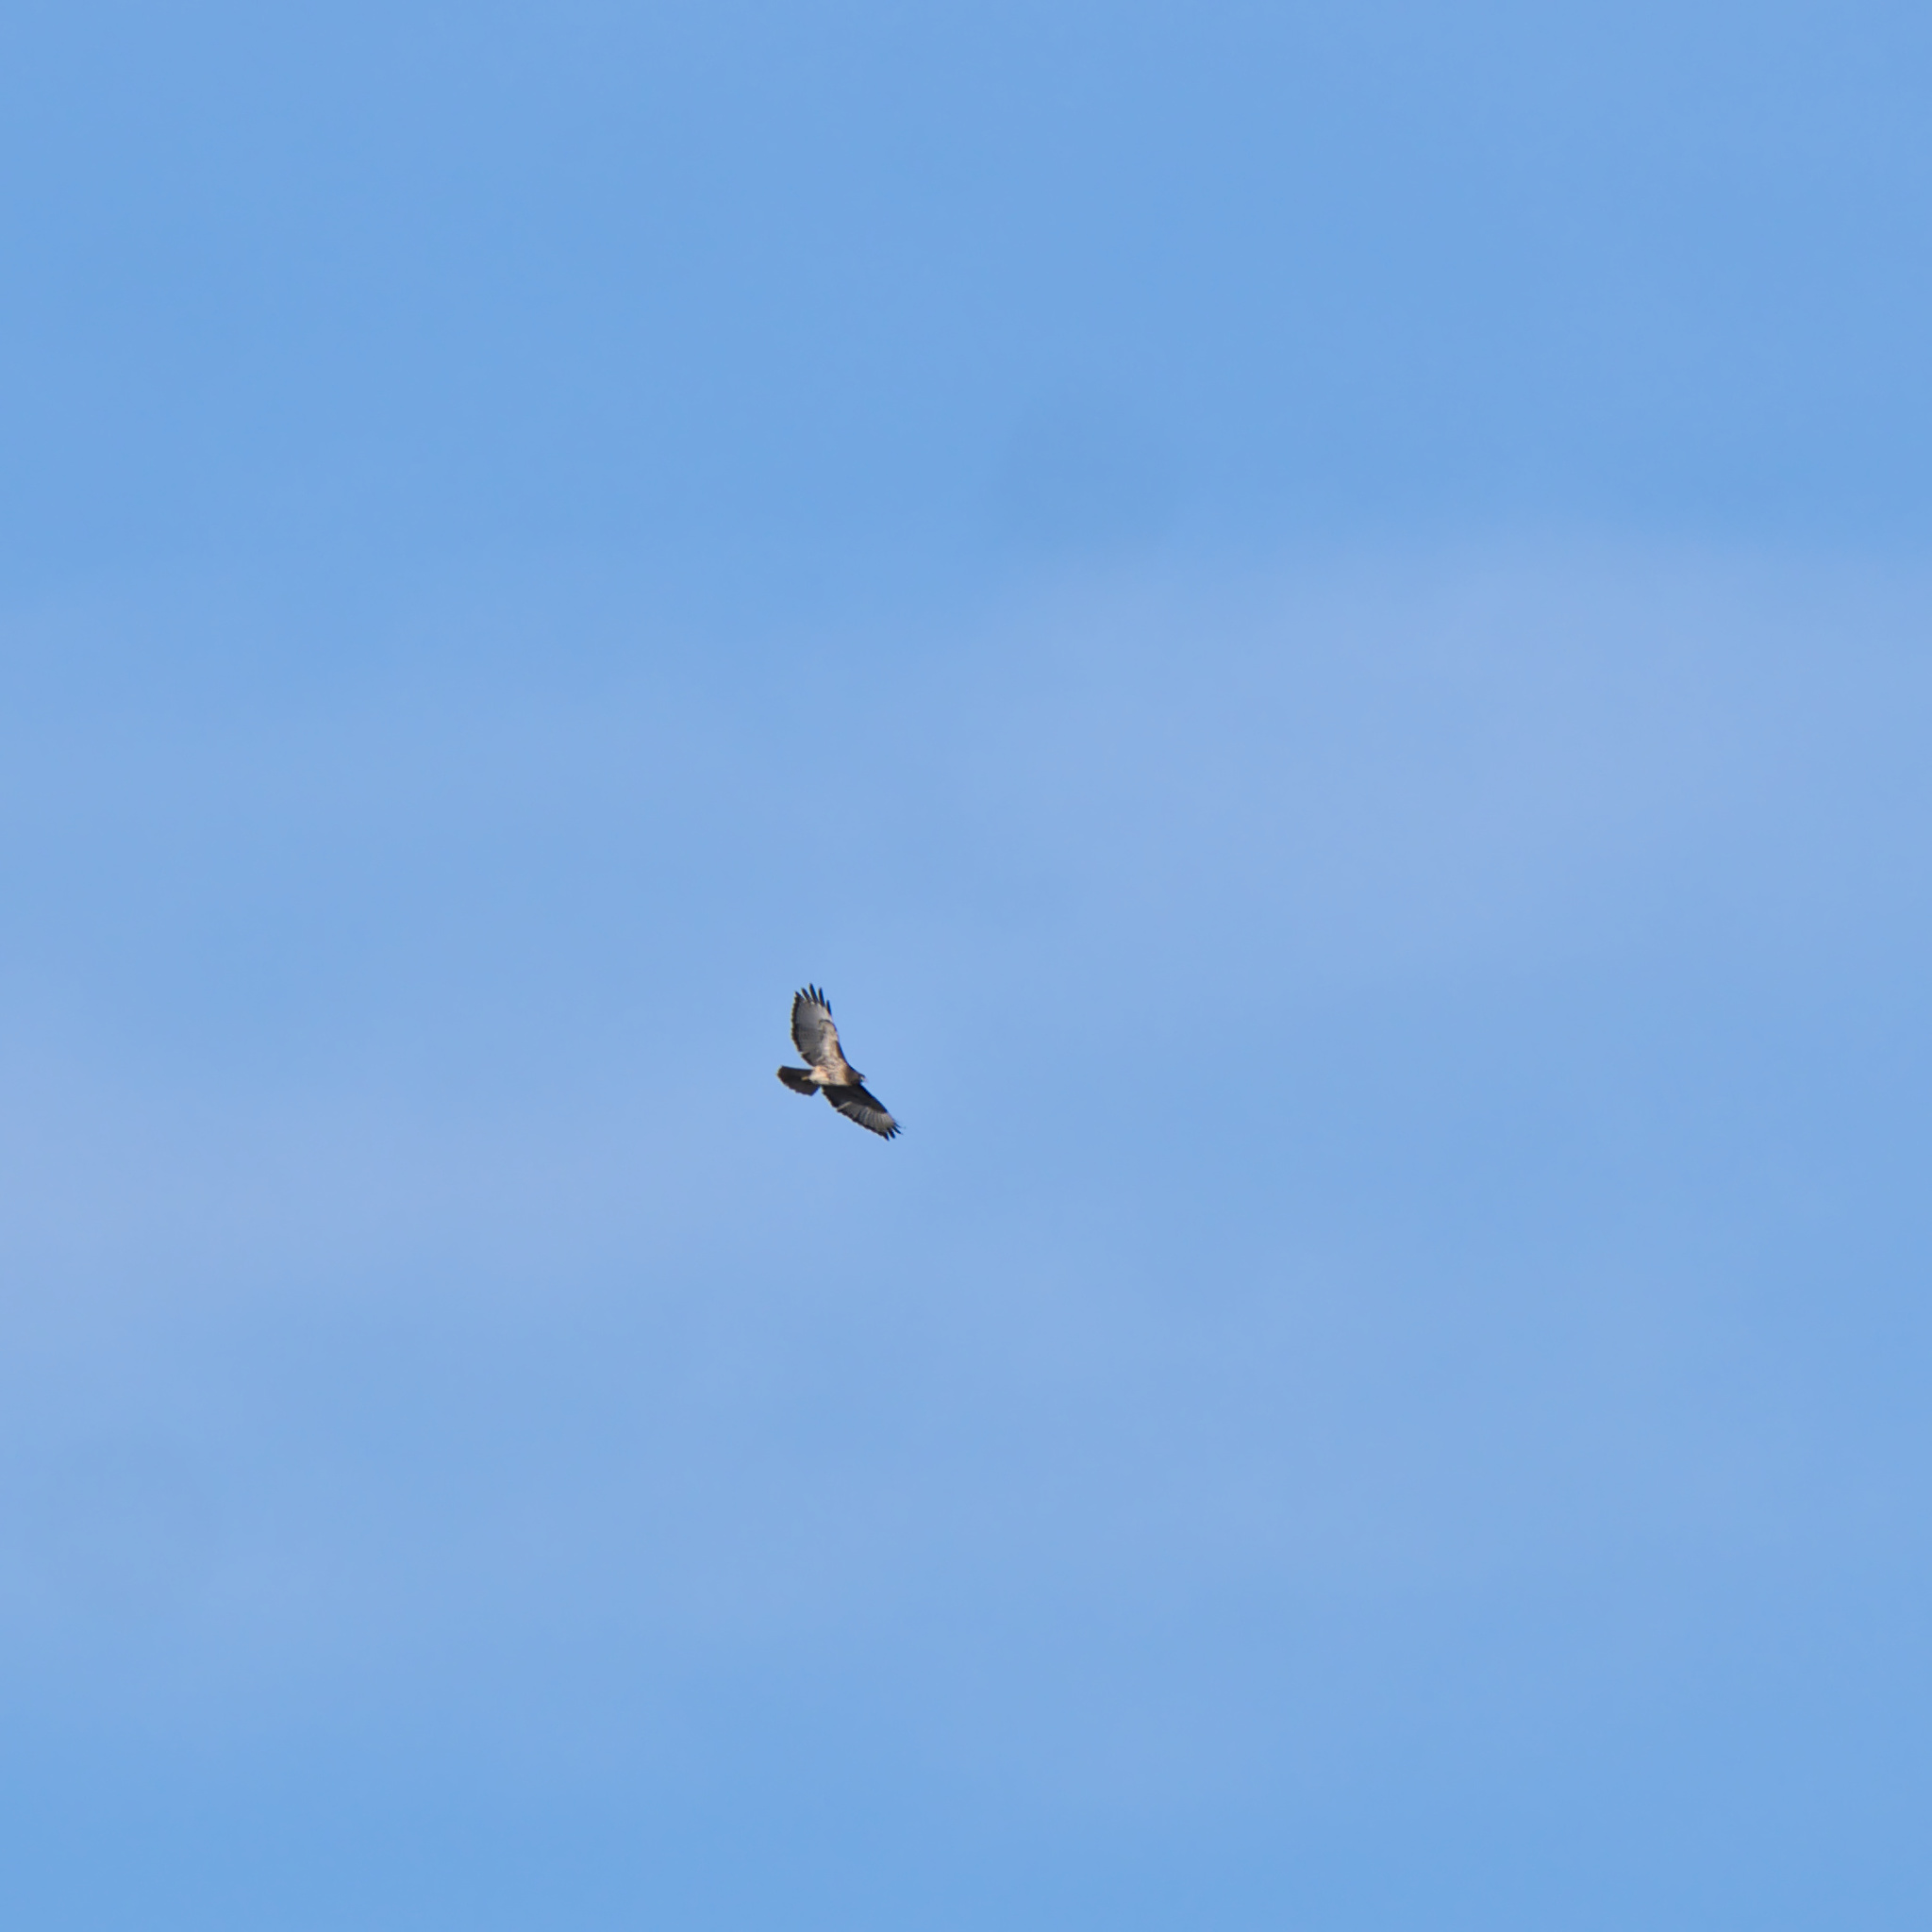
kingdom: Animalia
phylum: Chordata
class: Aves
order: Accipitriformes
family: Accipitridae
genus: Buteo
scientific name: Buteo jamaicensis
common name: Red-tailed hawk
